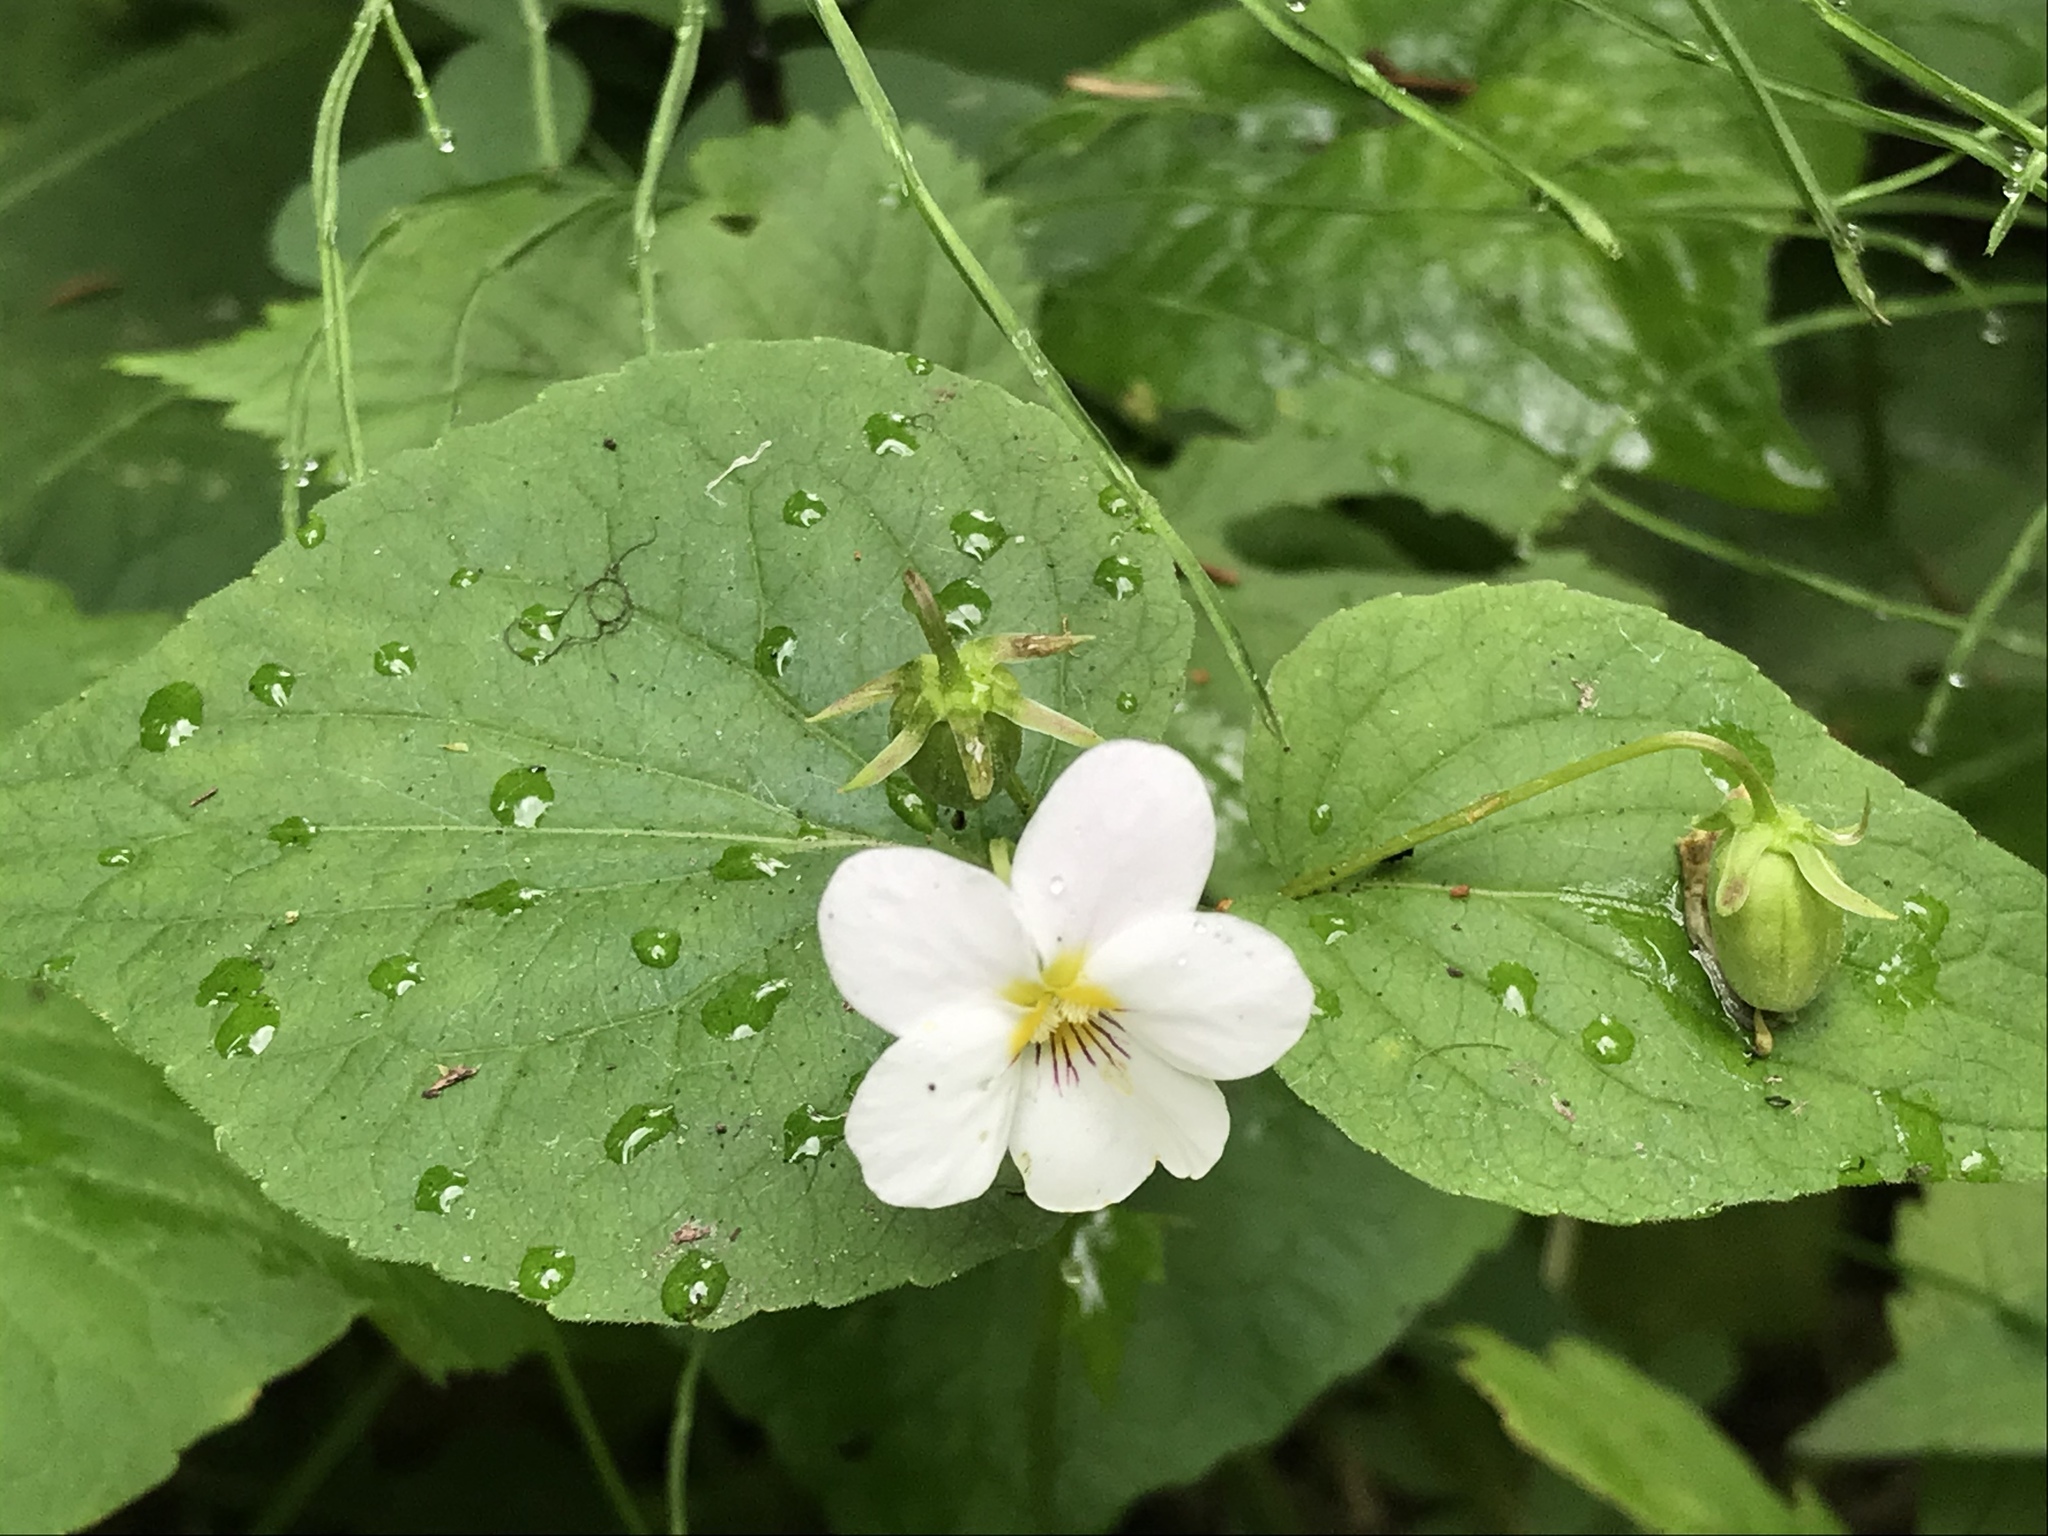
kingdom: Plantae
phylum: Tracheophyta
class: Magnoliopsida
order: Malpighiales
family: Violaceae
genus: Viola
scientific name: Viola canadensis
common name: Canada violet
